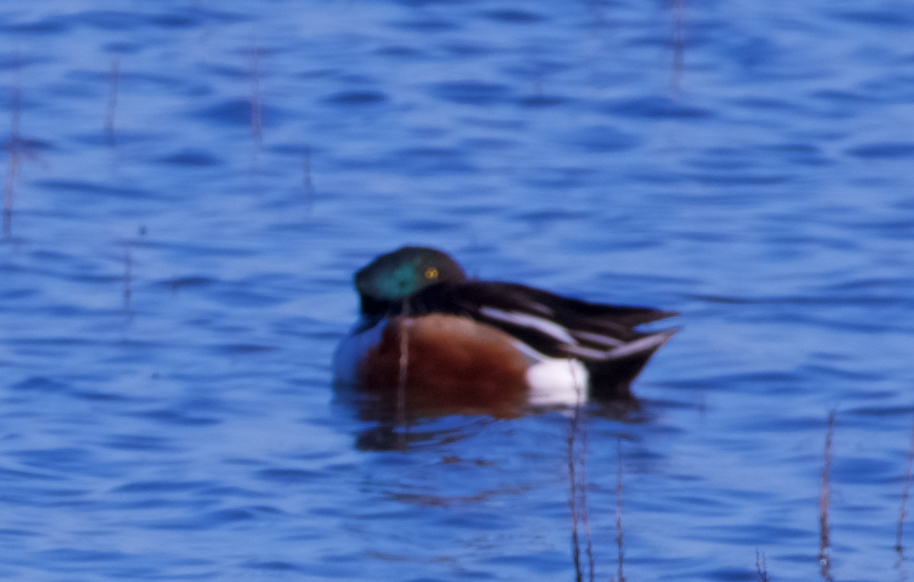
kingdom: Animalia
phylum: Chordata
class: Aves
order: Anseriformes
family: Anatidae
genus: Spatula
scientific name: Spatula clypeata
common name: Northern shoveler
